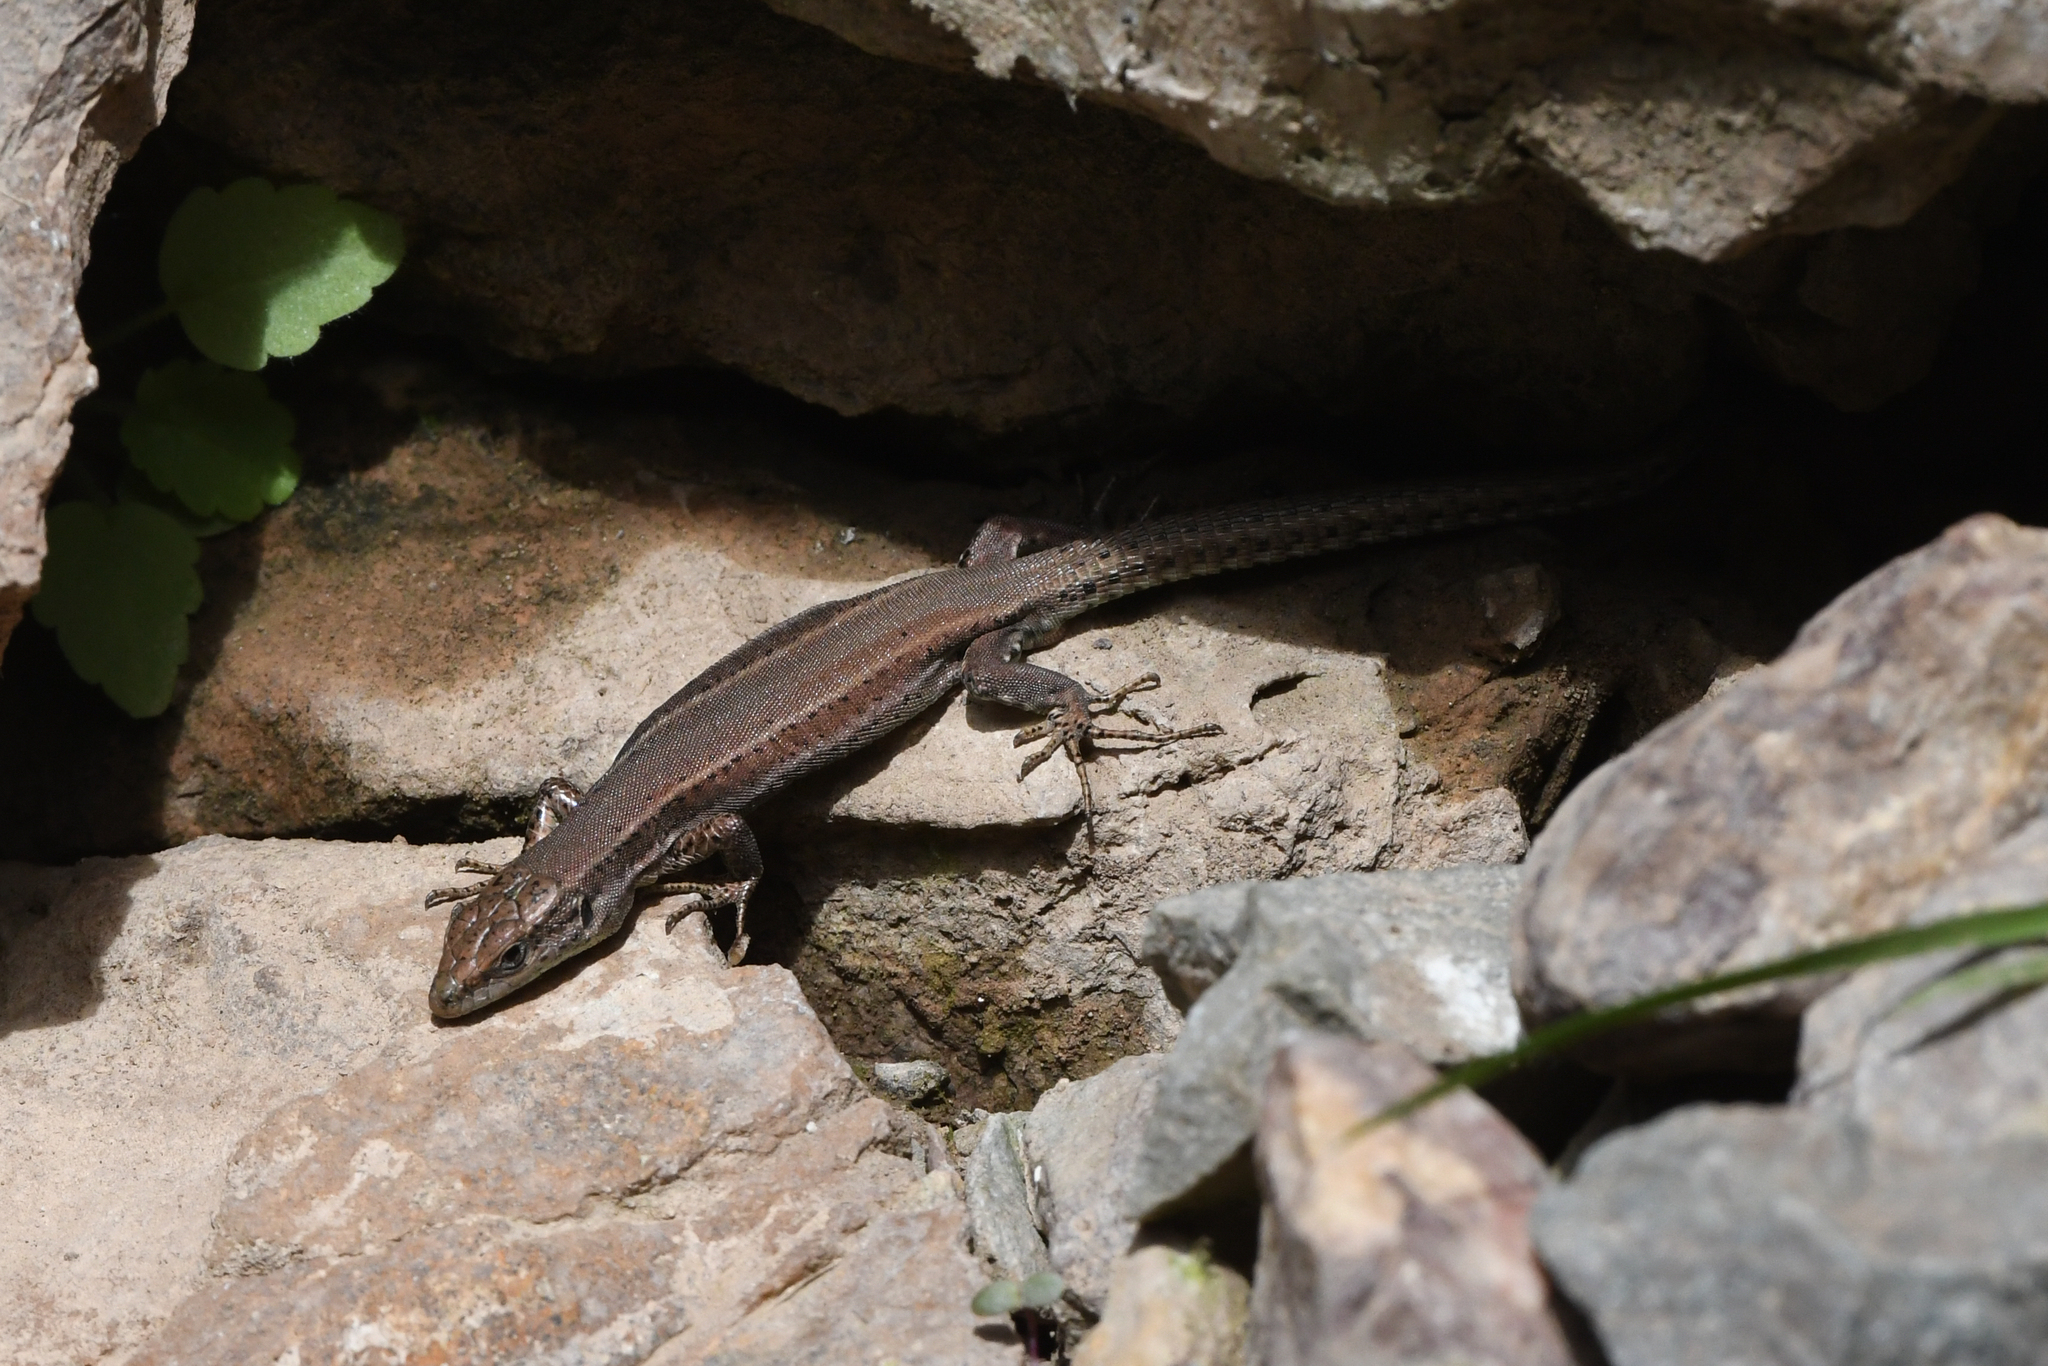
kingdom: Animalia
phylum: Chordata
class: Squamata
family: Lacertidae
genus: Podarcis
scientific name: Podarcis vaucheri
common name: Vaucher's wall lizard
